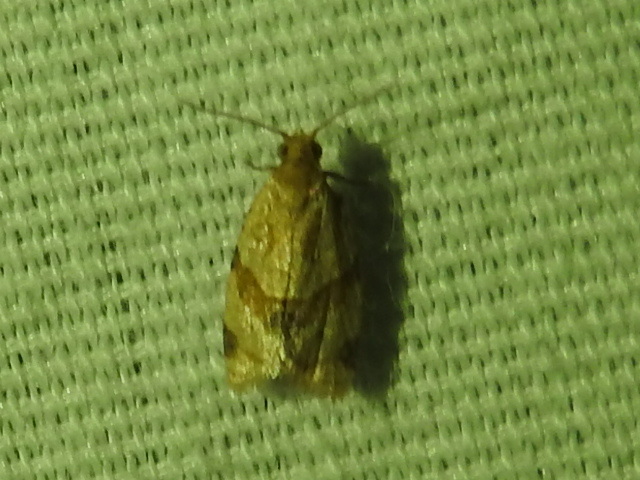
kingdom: Animalia
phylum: Arthropoda
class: Insecta
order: Lepidoptera
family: Tortricidae
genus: Clepsis
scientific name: Clepsis peritana
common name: Garden tortrix
